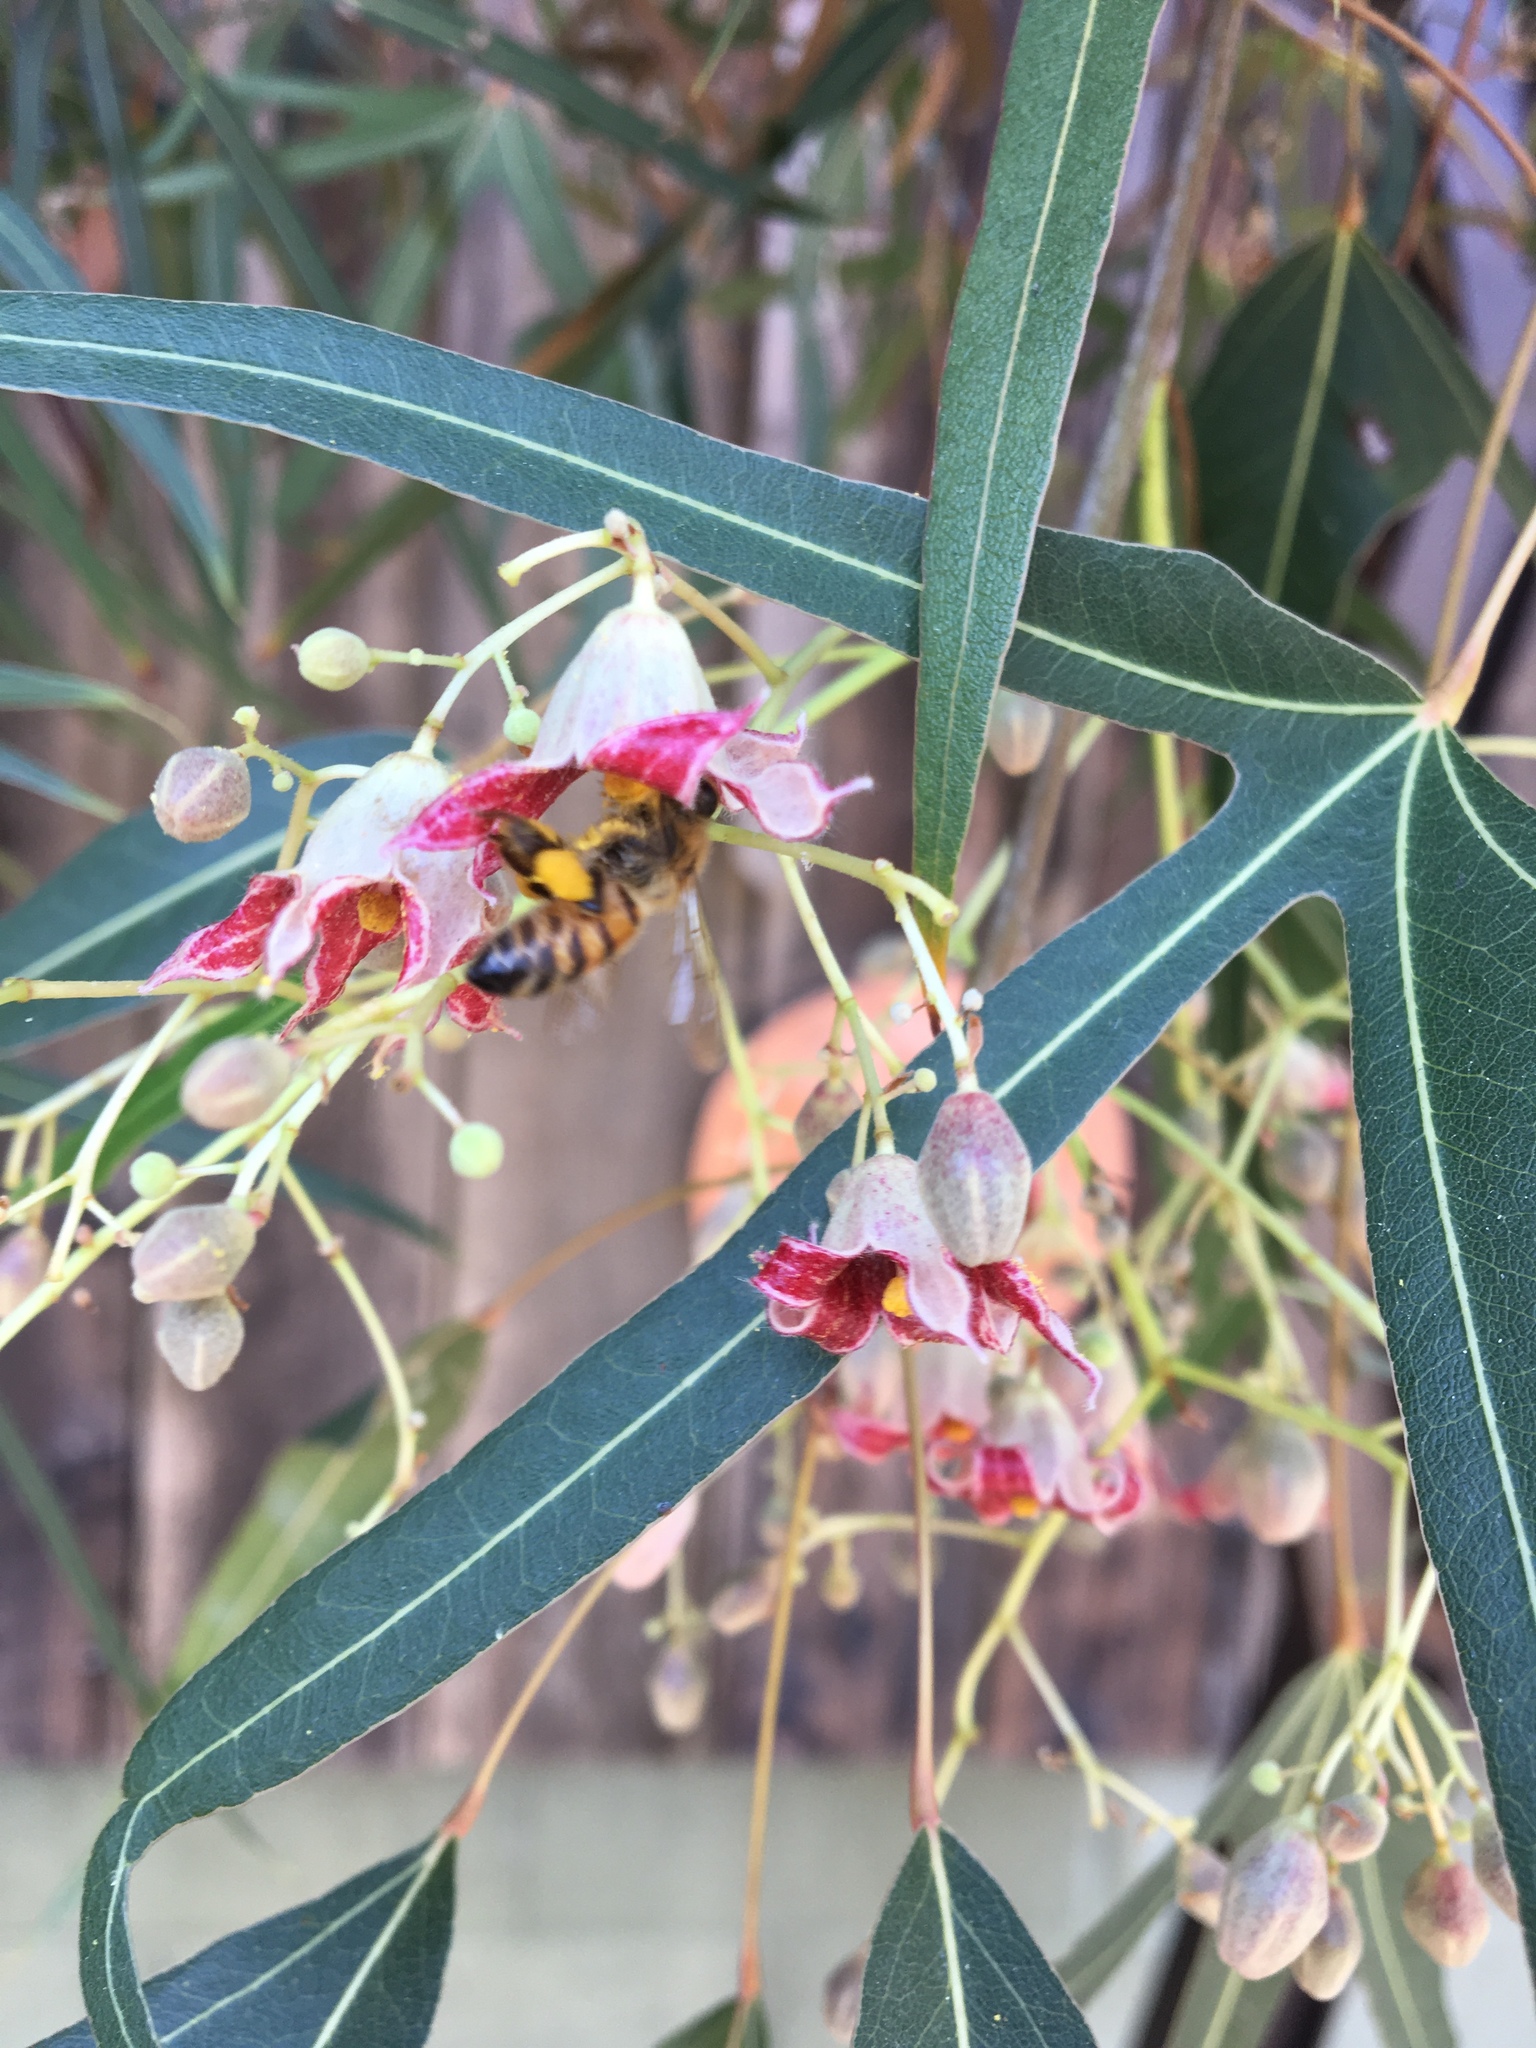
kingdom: Animalia
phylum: Arthropoda
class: Insecta
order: Hymenoptera
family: Apidae
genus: Apis
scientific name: Apis mellifera
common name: Honey bee
